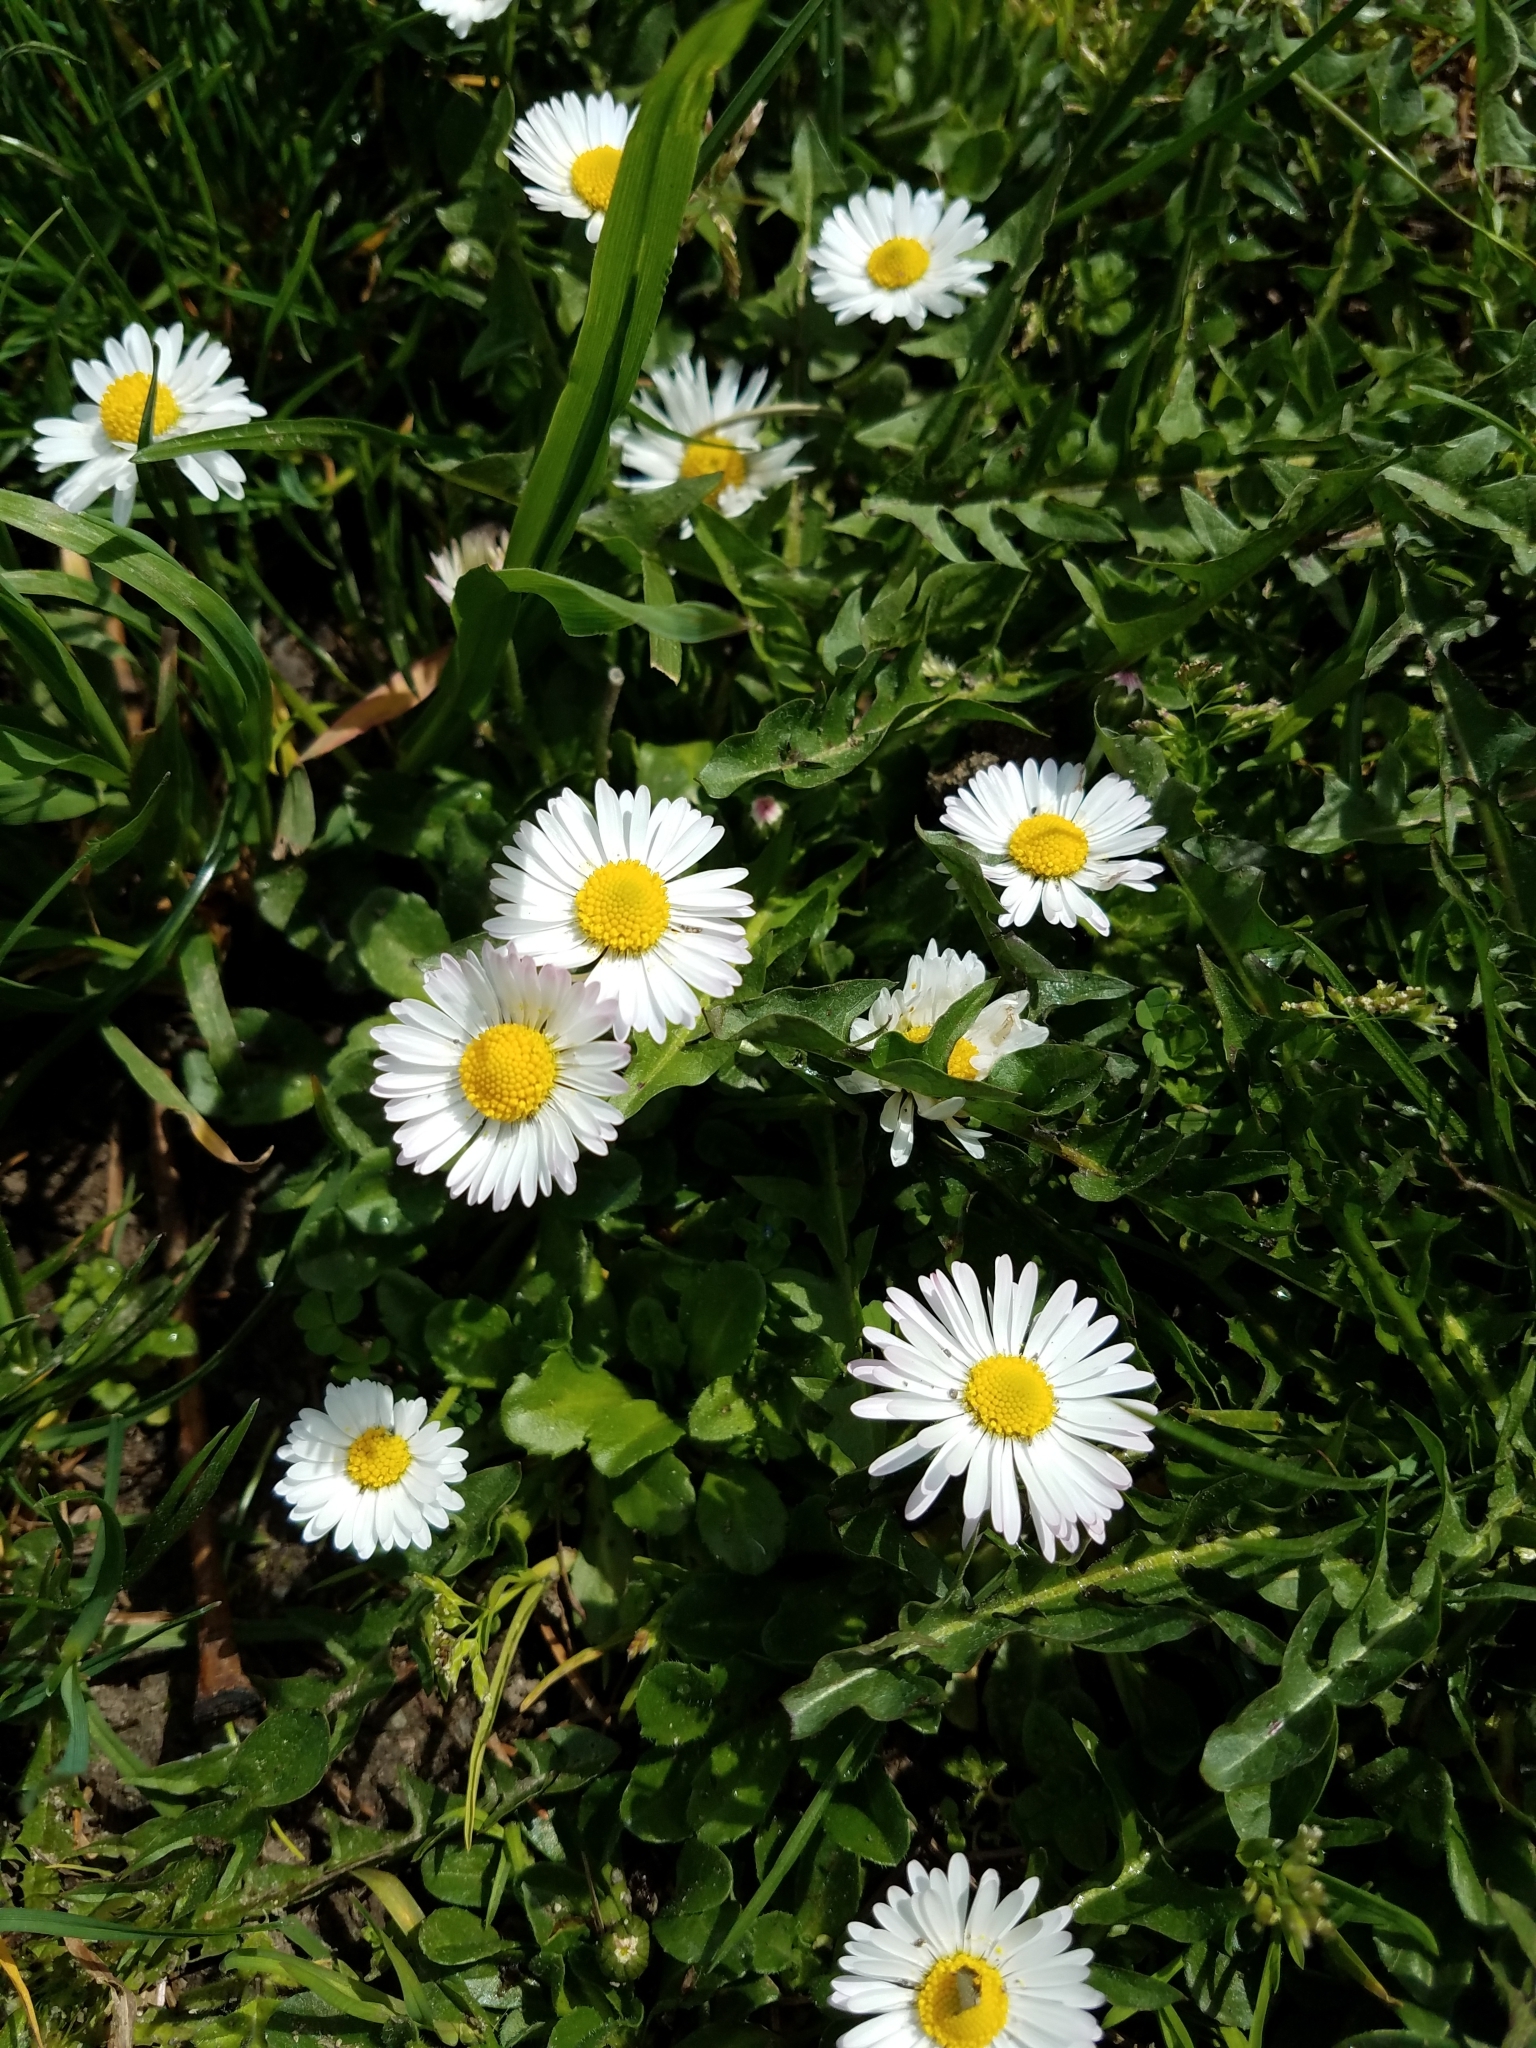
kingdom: Plantae
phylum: Tracheophyta
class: Magnoliopsida
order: Asterales
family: Asteraceae
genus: Bellis
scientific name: Bellis perennis
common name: Lawndaisy
